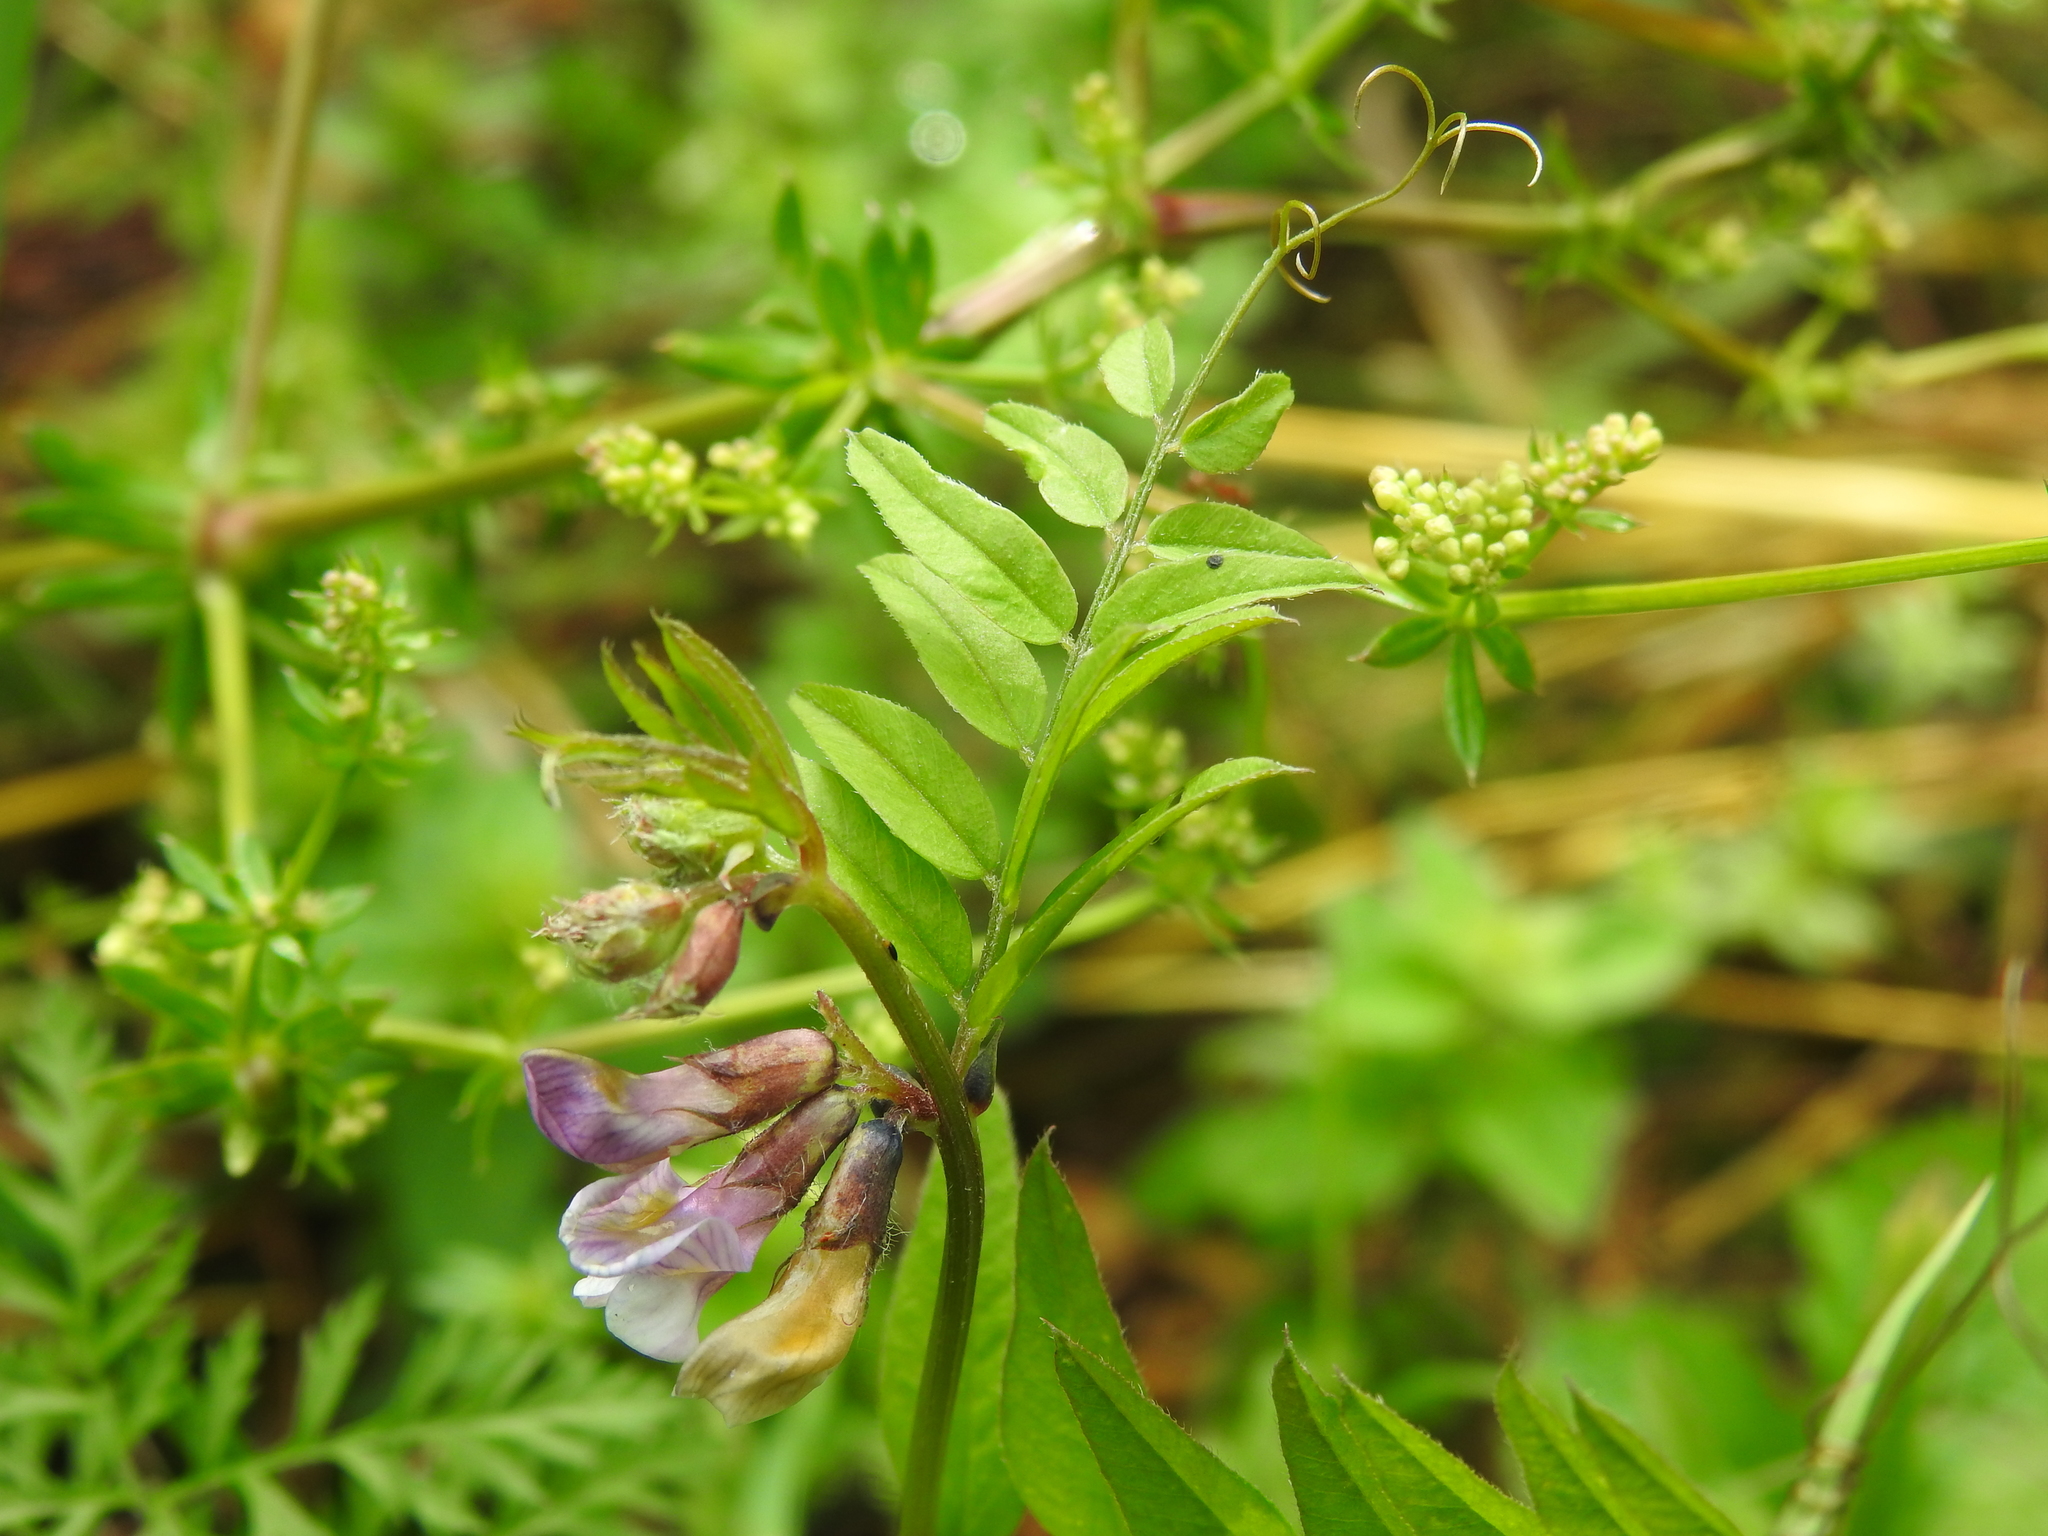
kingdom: Plantae
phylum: Tracheophyta
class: Magnoliopsida
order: Fabales
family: Fabaceae
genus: Vicia
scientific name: Vicia sepium
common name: Bush vetch
